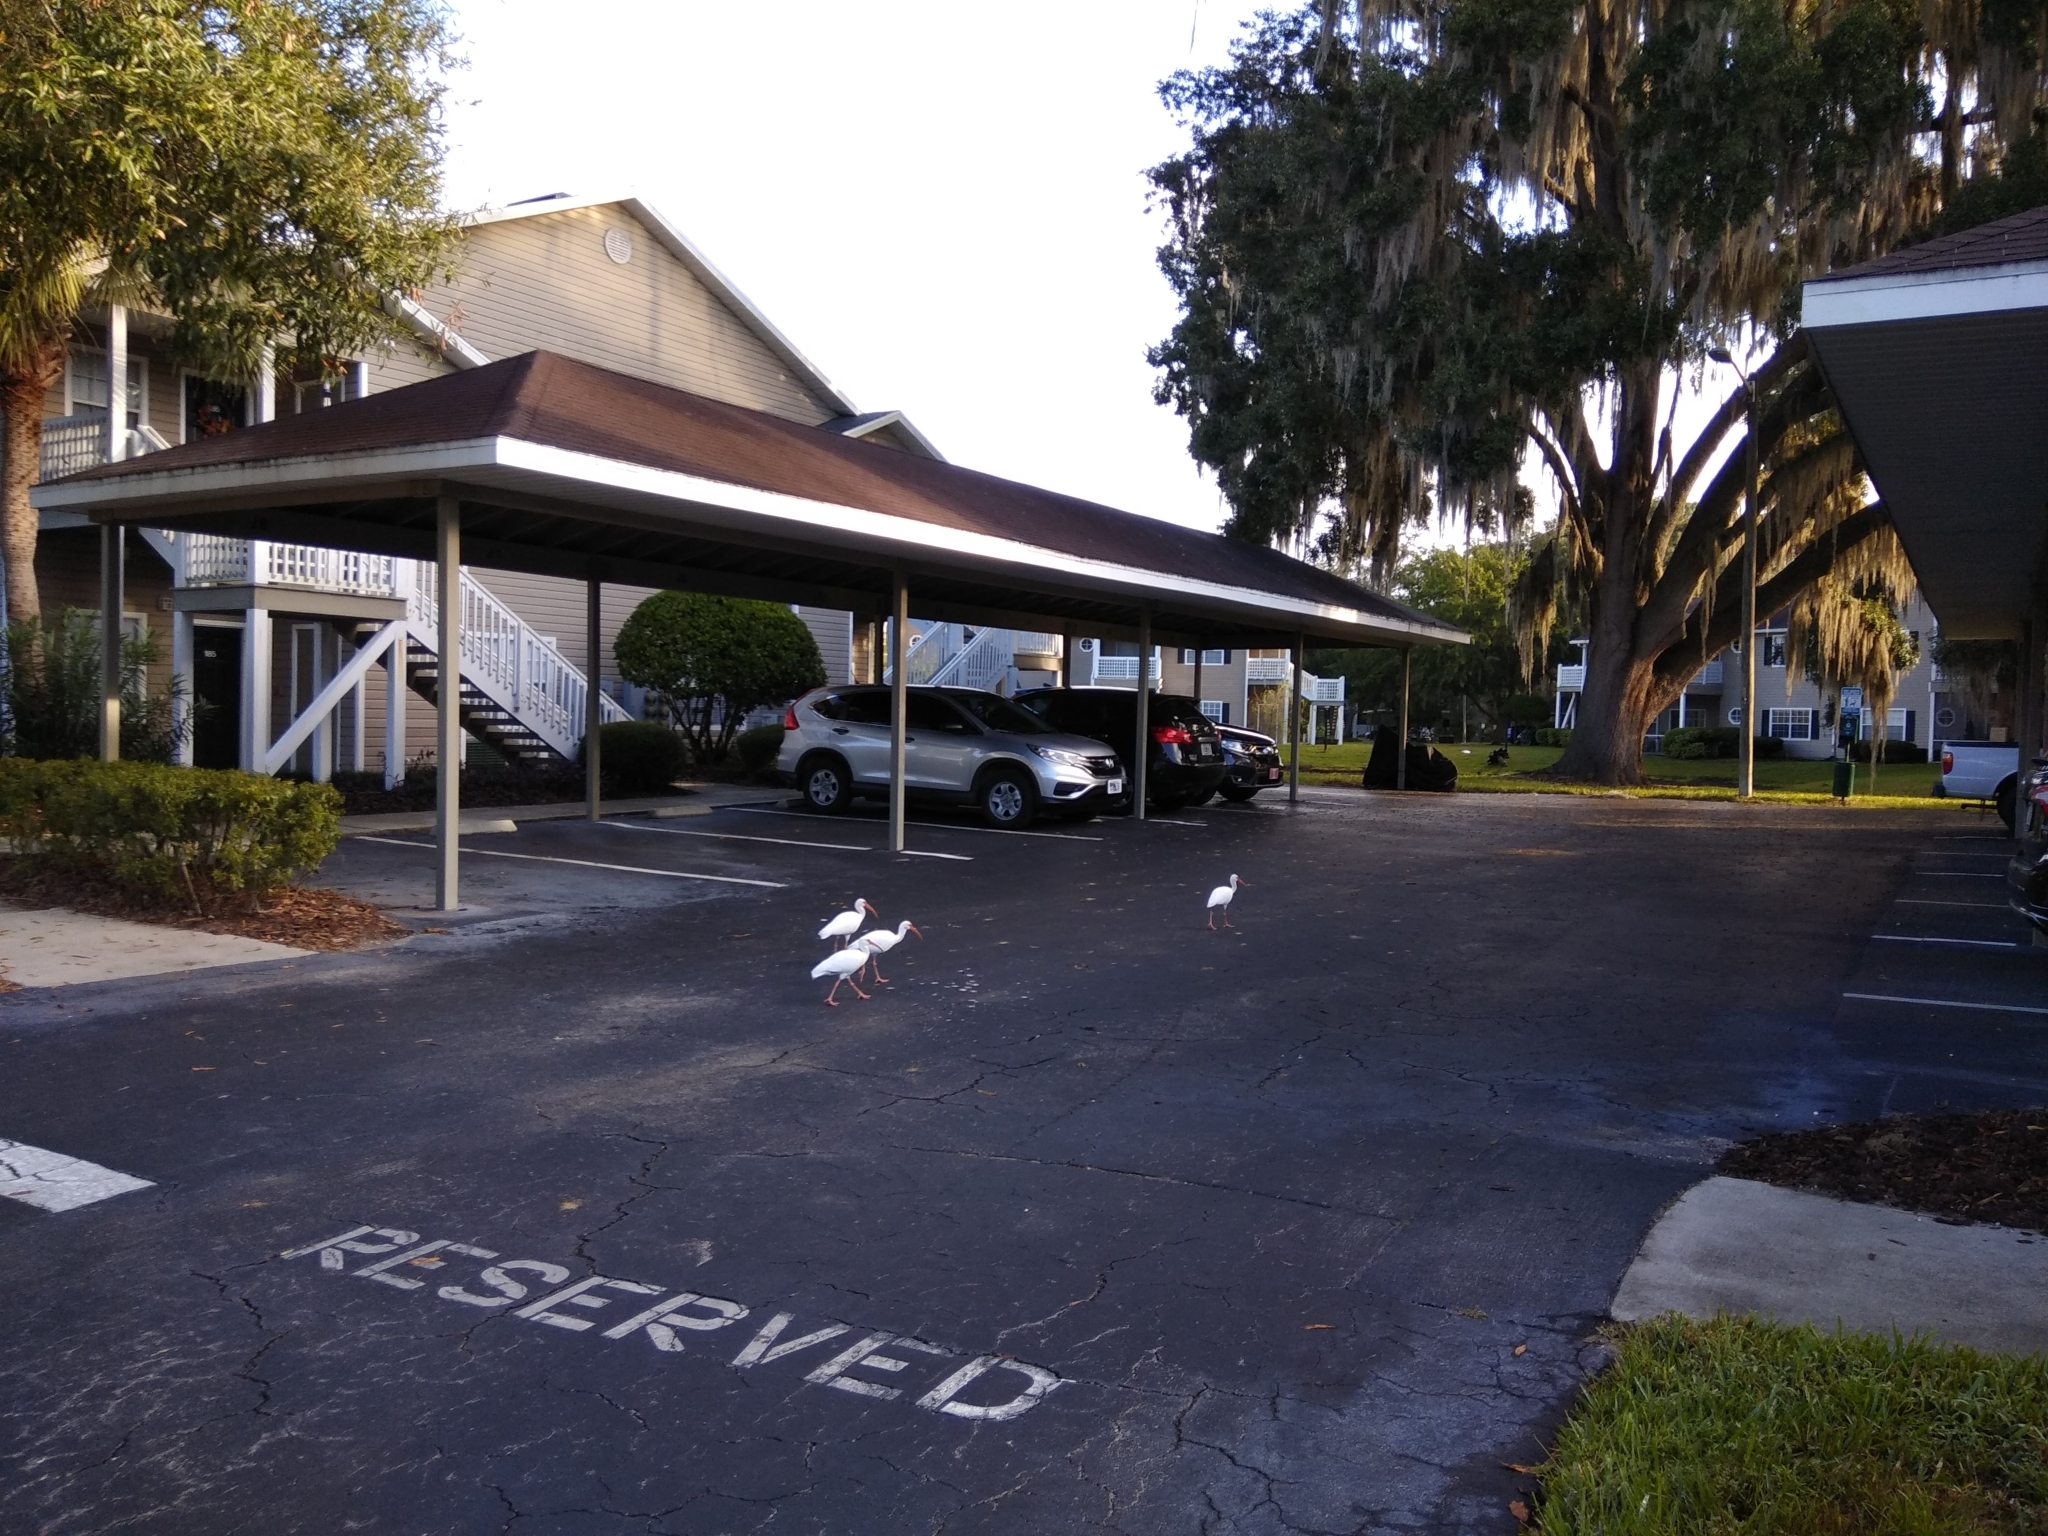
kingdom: Animalia
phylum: Chordata
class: Aves
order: Pelecaniformes
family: Threskiornithidae
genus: Eudocimus
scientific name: Eudocimus albus
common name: White ibis
